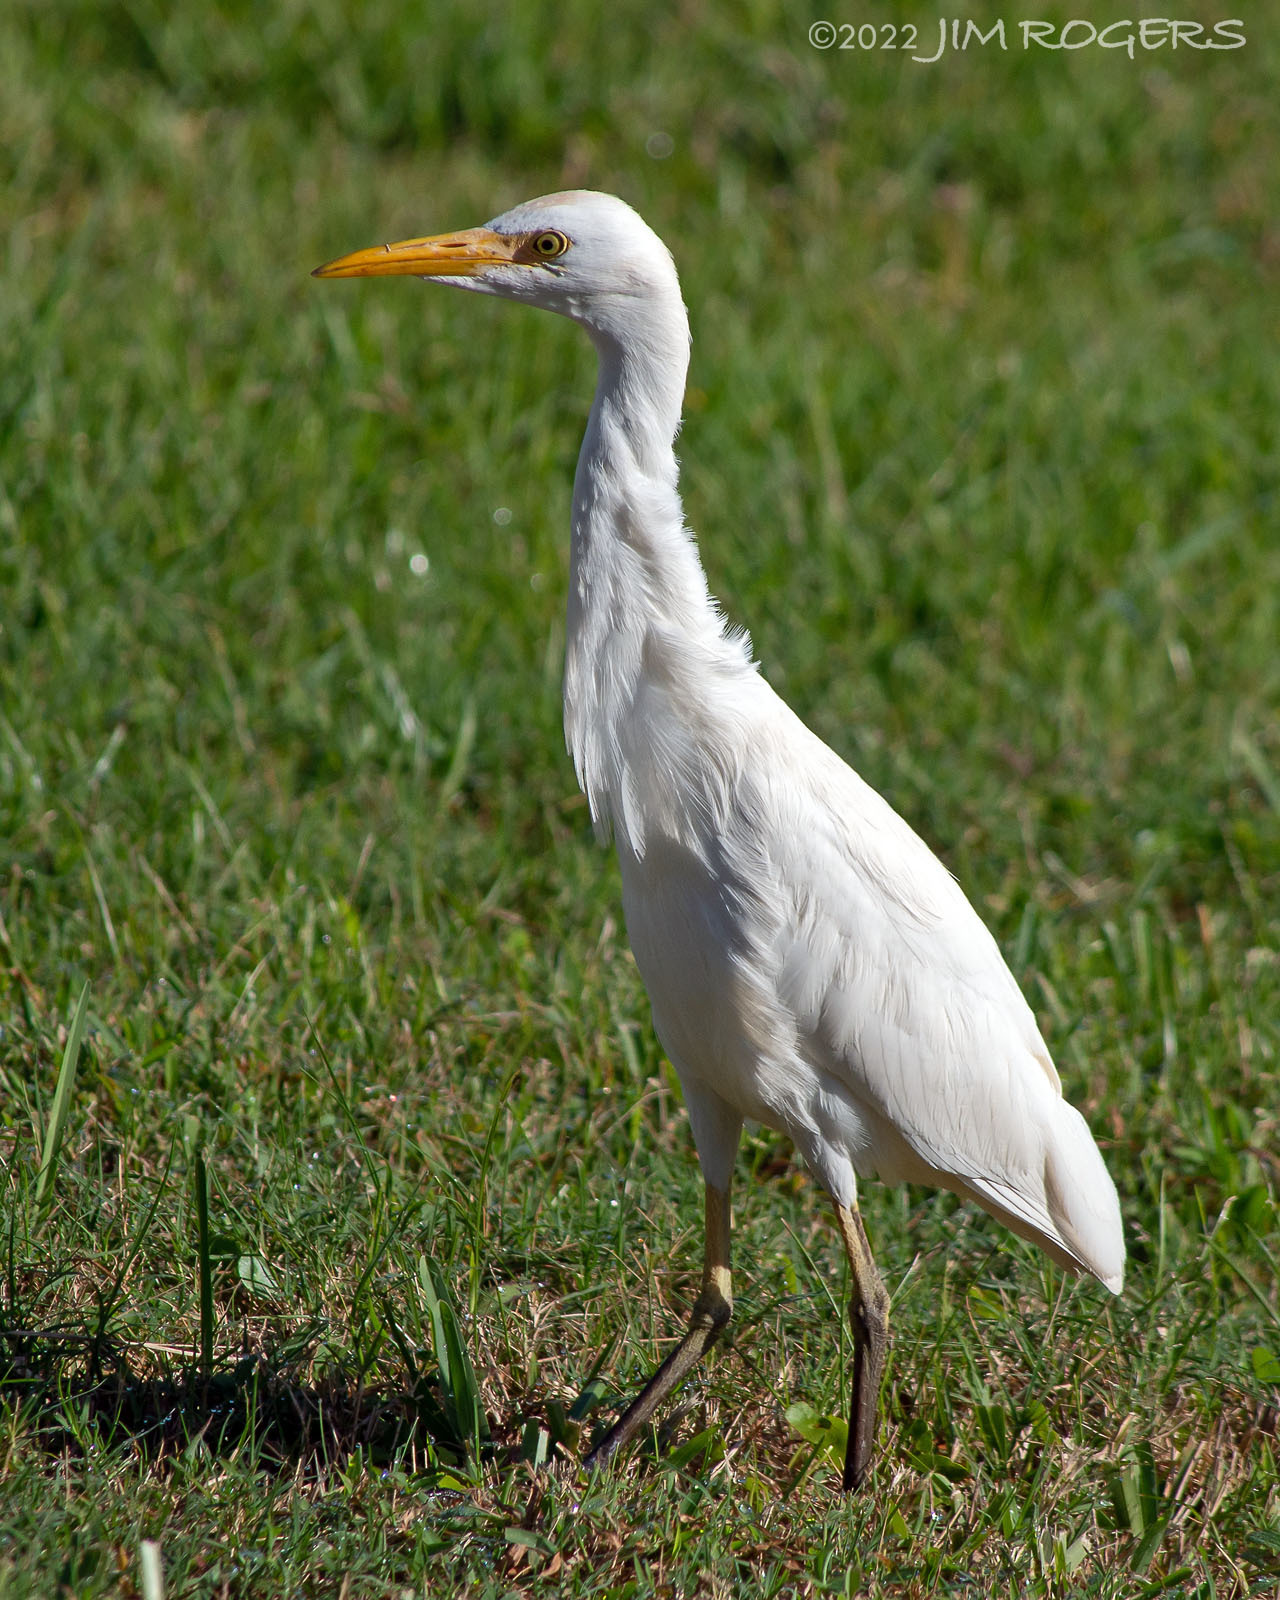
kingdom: Animalia
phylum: Chordata
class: Aves
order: Pelecaniformes
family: Ardeidae
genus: Bubulcus
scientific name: Bubulcus ibis
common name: Cattle egret
